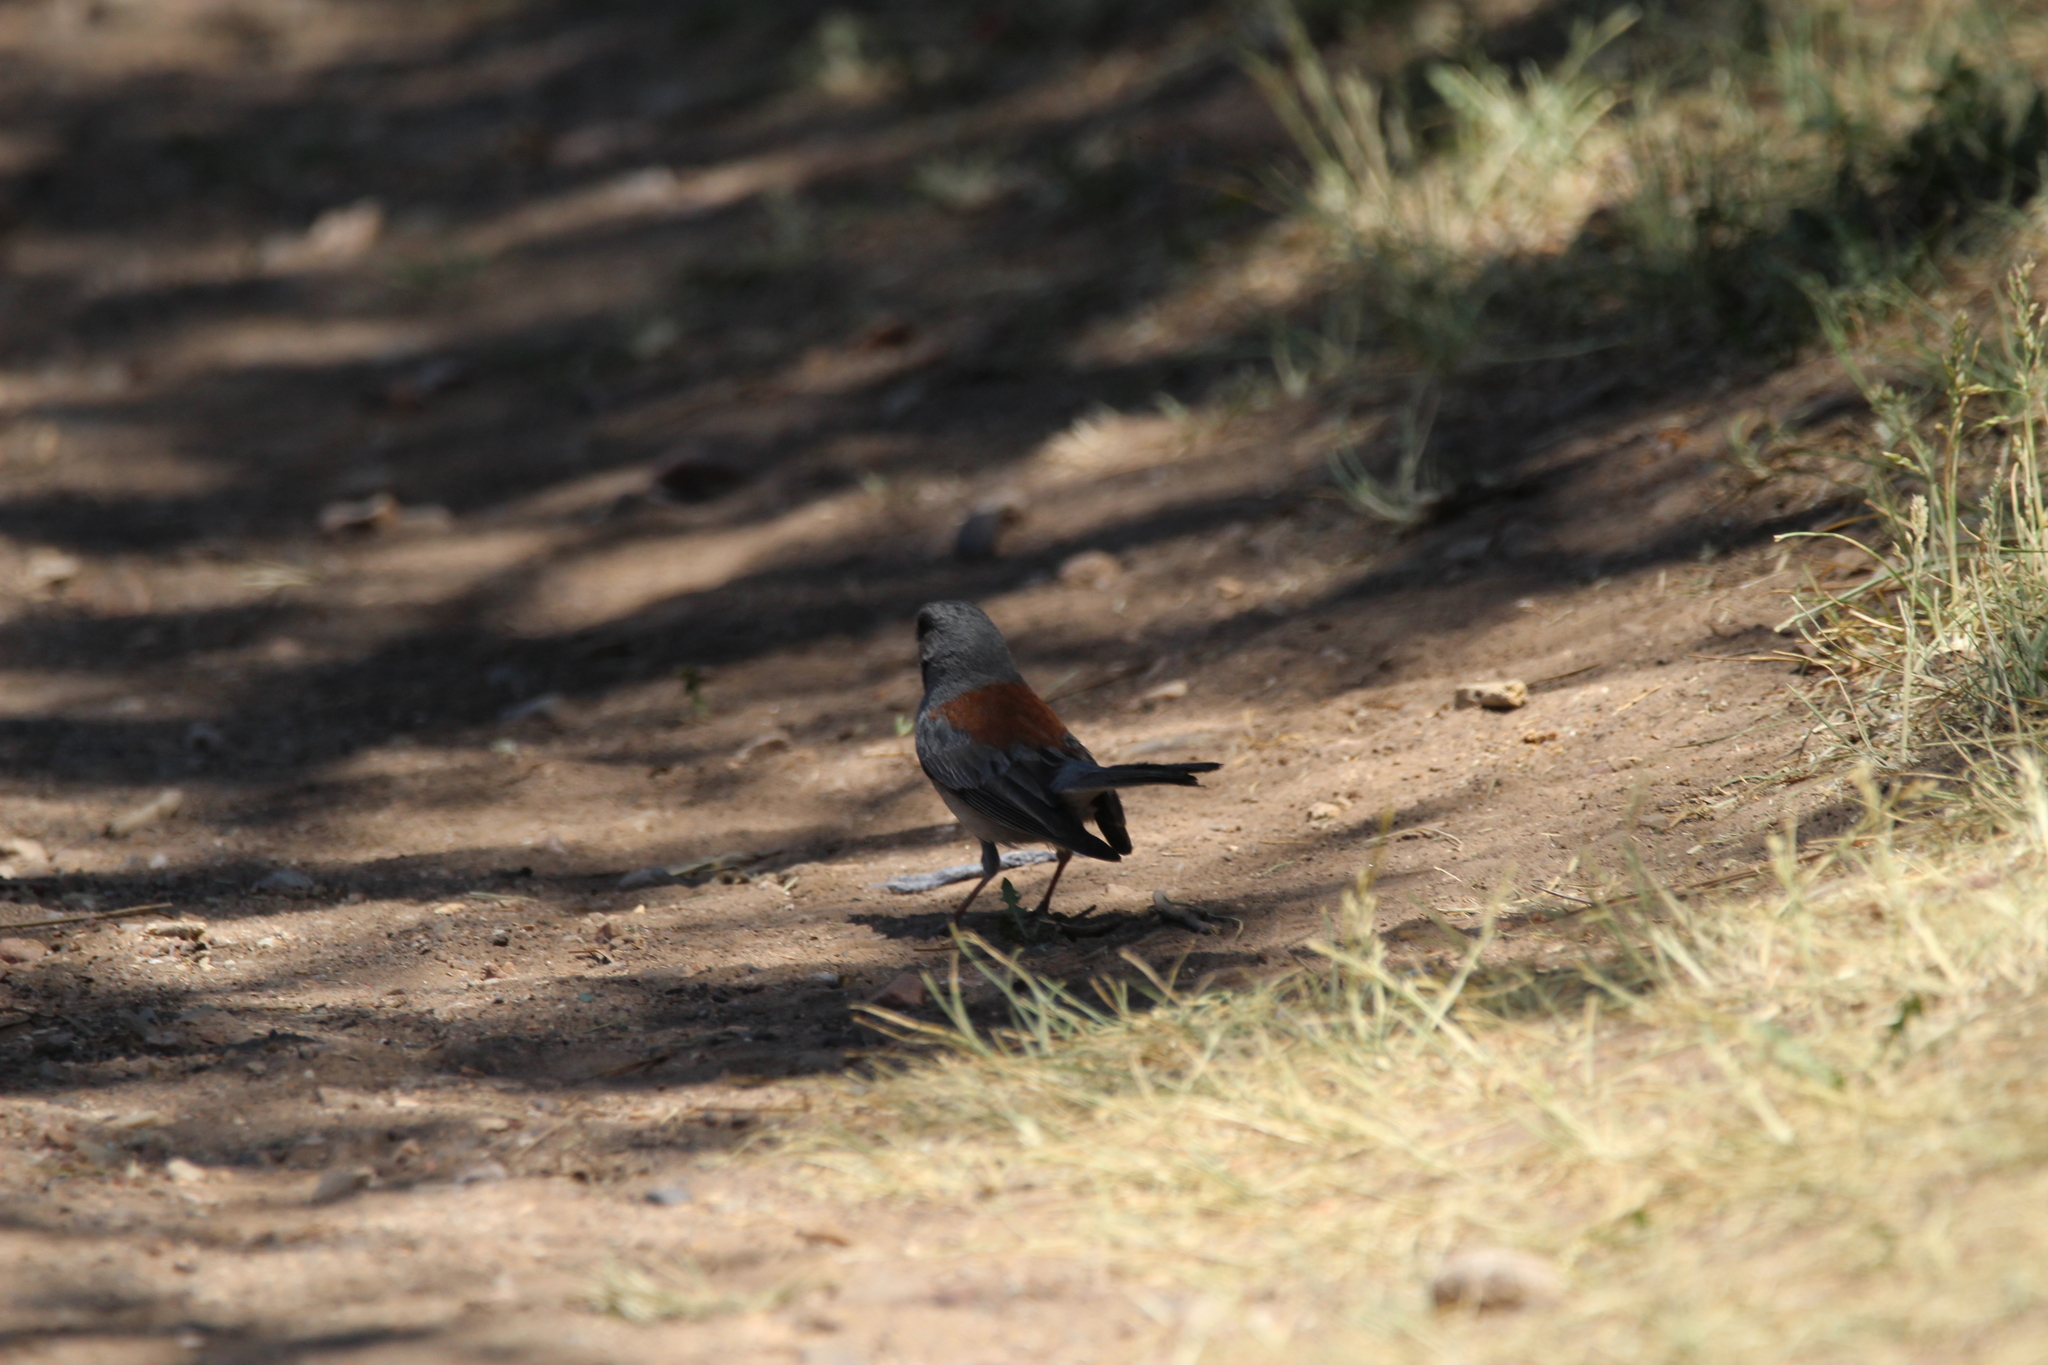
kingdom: Animalia
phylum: Chordata
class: Aves
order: Passeriformes
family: Passerellidae
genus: Junco
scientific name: Junco hyemalis
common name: Dark-eyed junco
